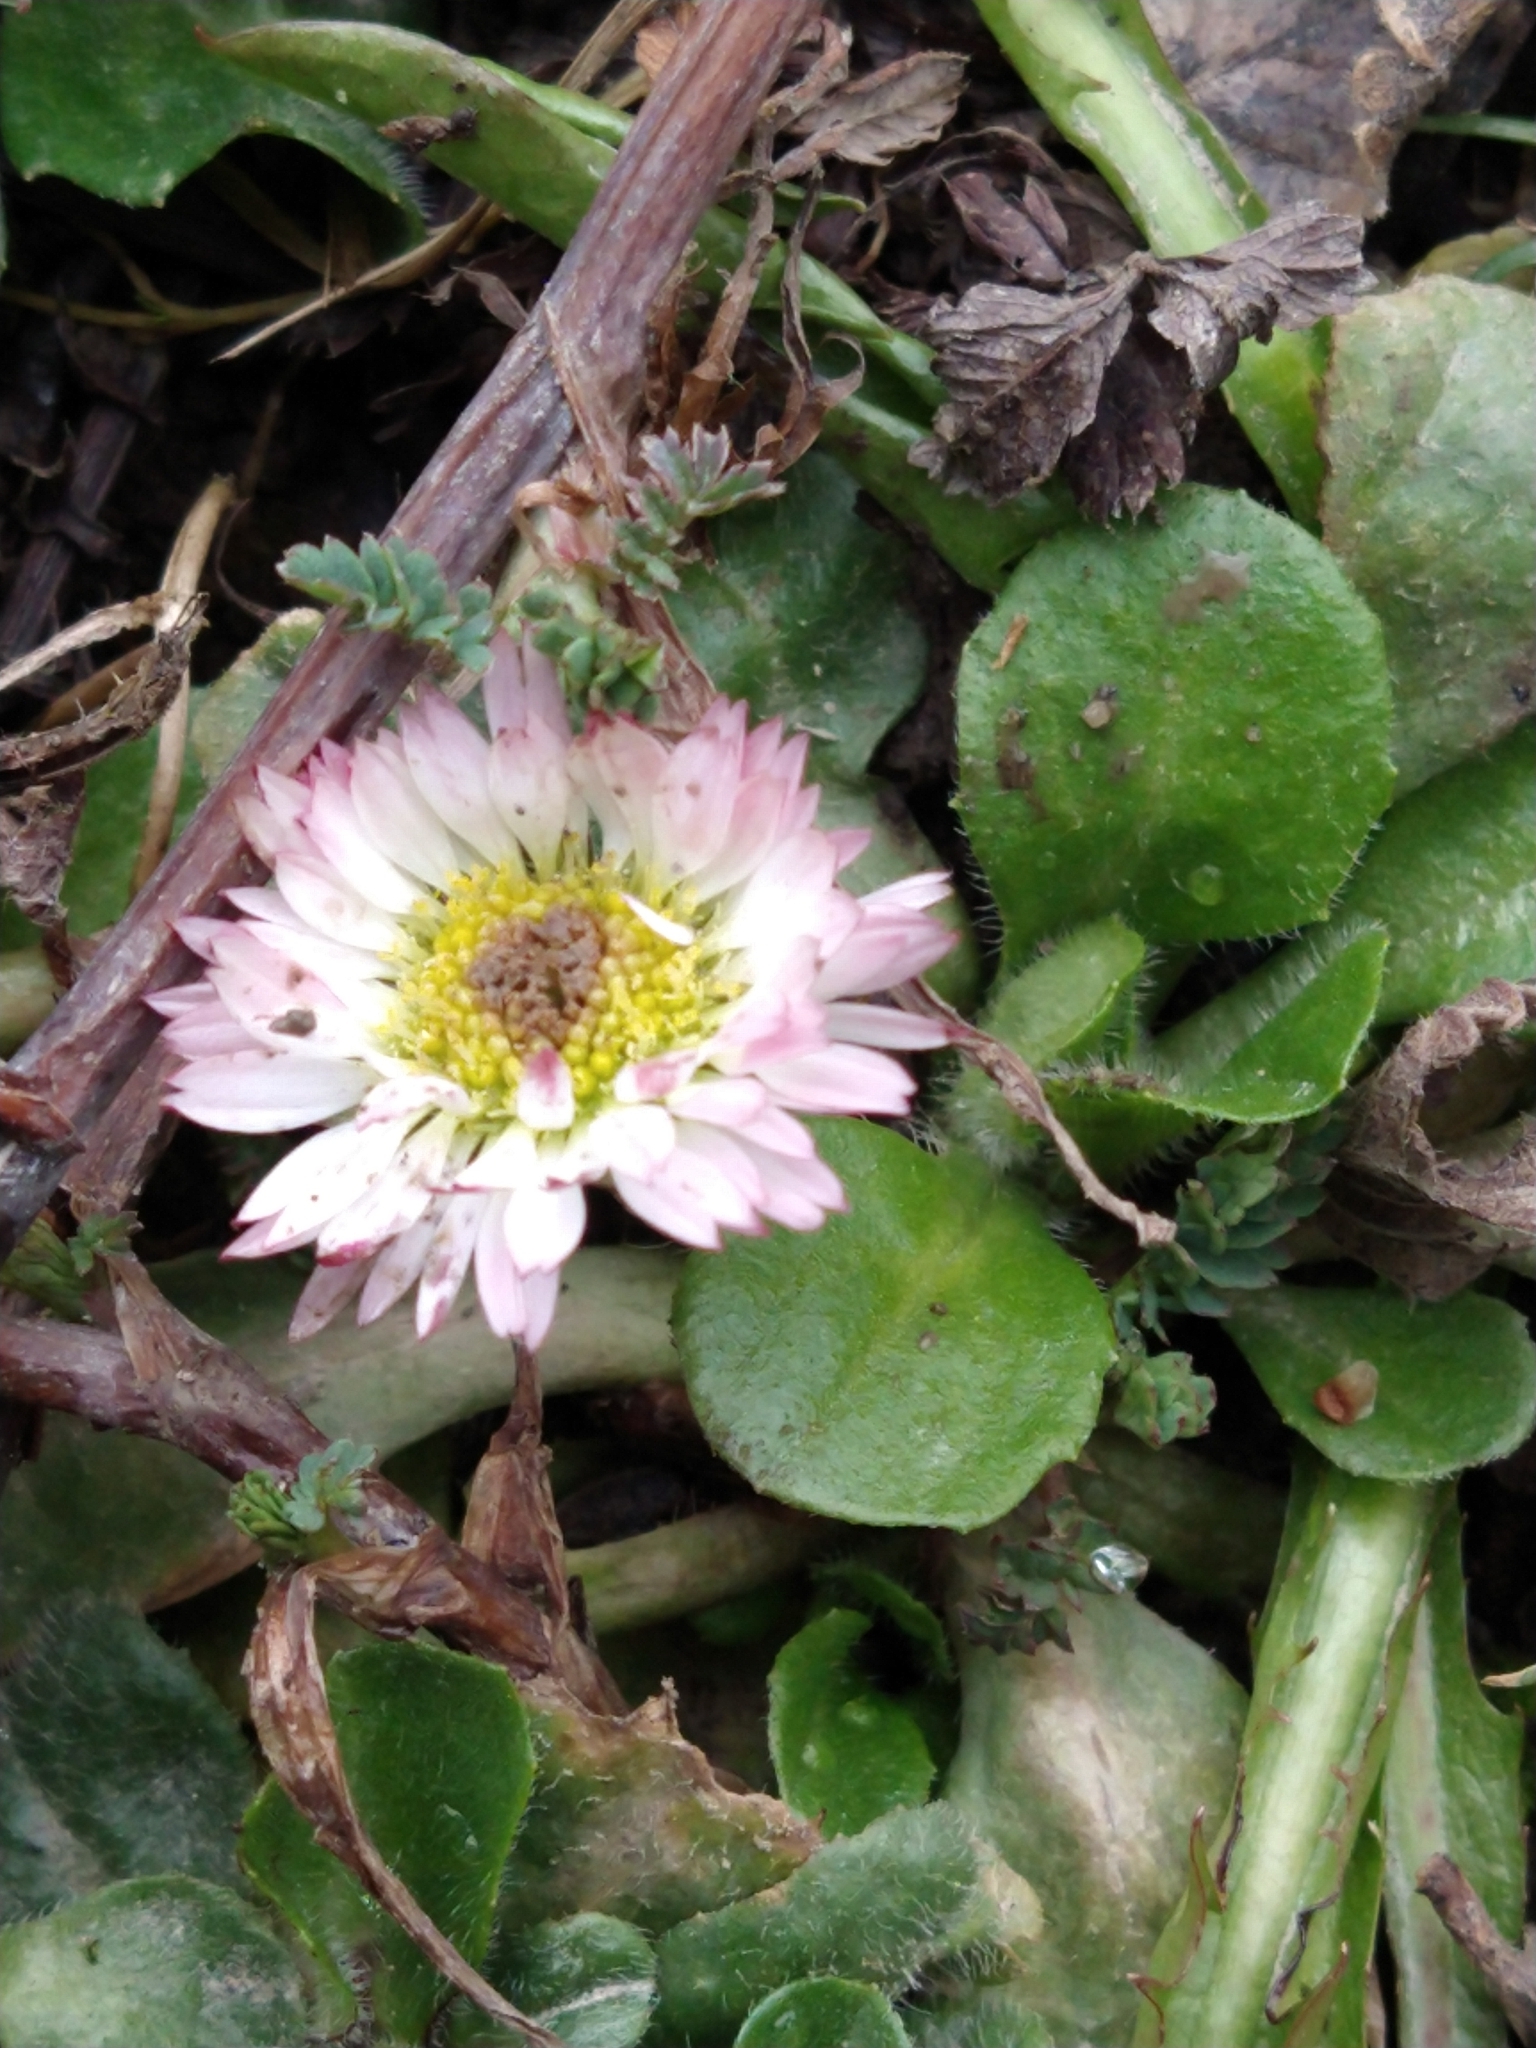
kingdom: Plantae
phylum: Tracheophyta
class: Magnoliopsida
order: Asterales
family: Asteraceae
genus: Bellis
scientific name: Bellis perennis
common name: Lawndaisy
